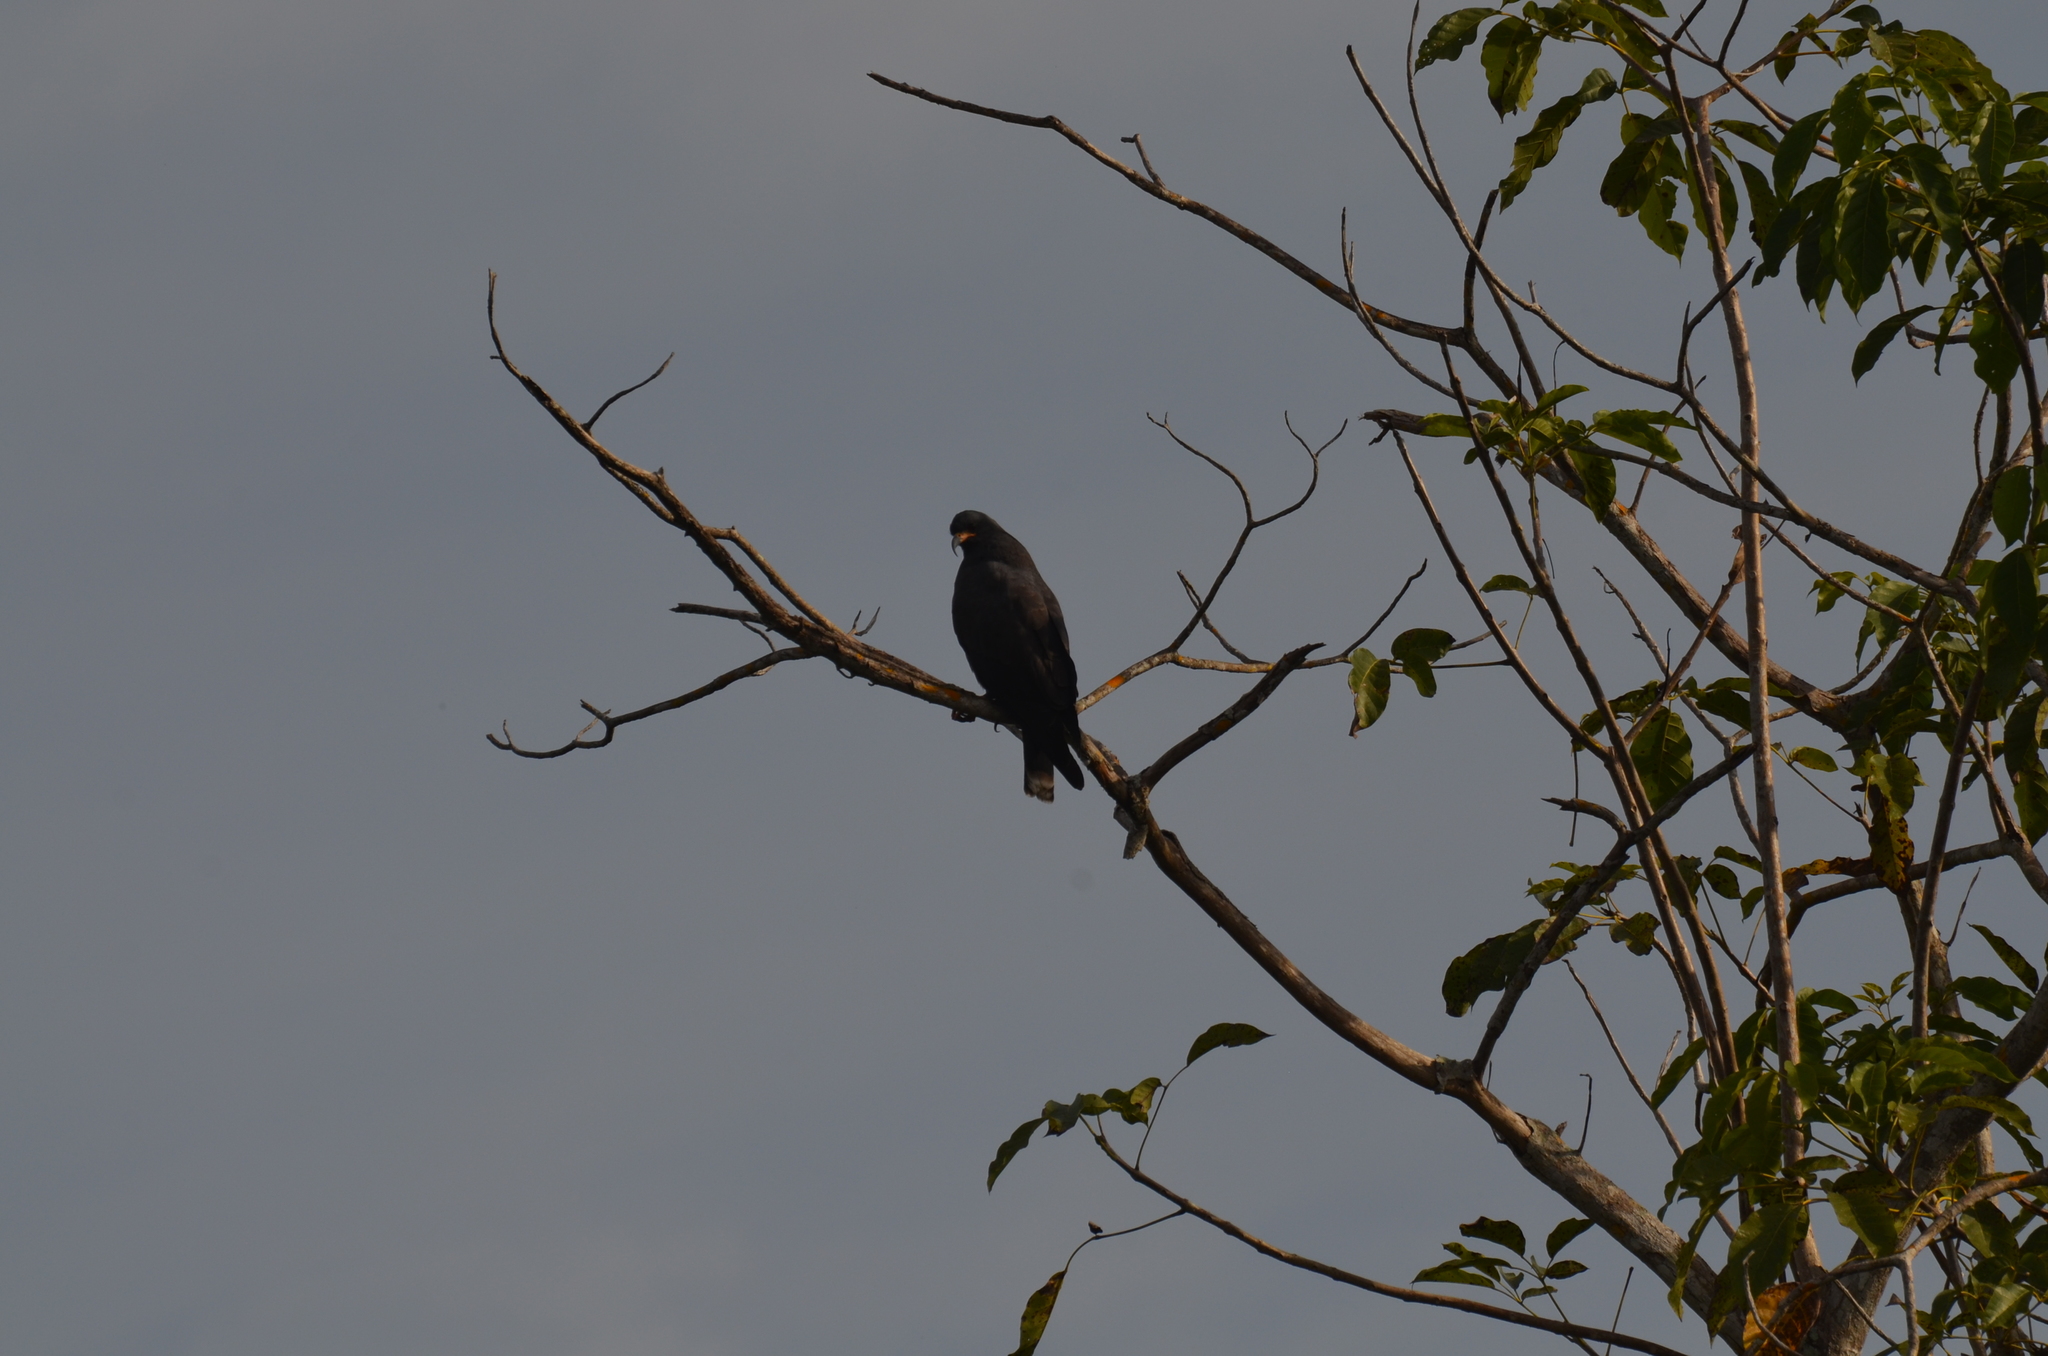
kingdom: Animalia
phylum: Chordata
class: Aves
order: Accipitriformes
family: Accipitridae
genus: Rostrhamus
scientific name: Rostrhamus sociabilis
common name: Snail kite
